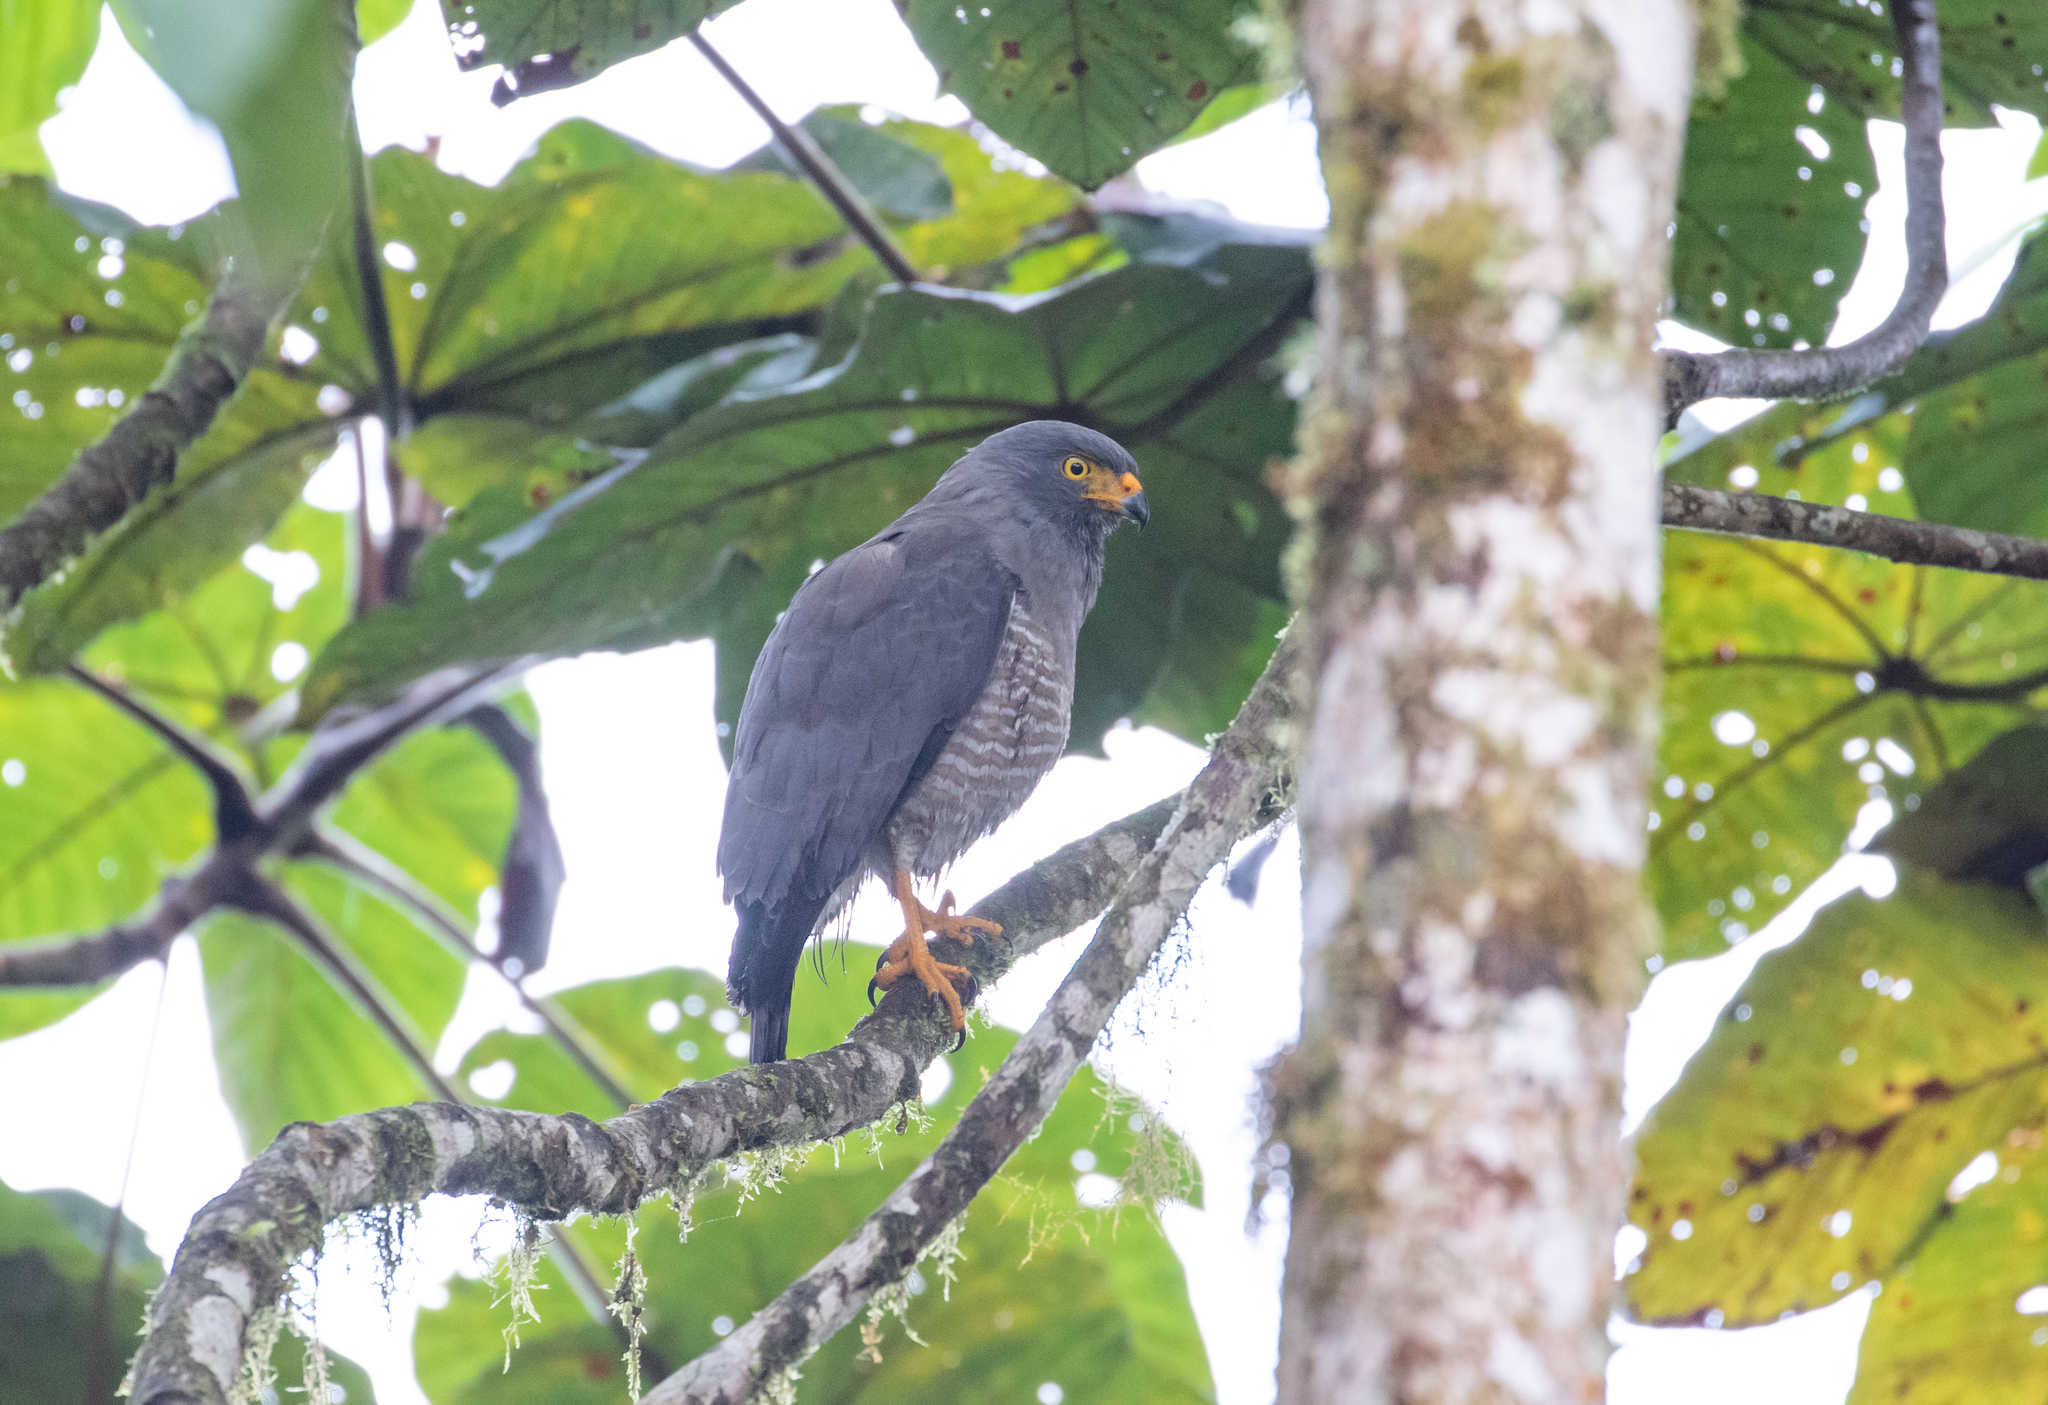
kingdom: Animalia
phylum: Chordata
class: Aves
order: Accipitriformes
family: Accipitridae
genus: Rupornis
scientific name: Rupornis magnirostris
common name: Roadside hawk
